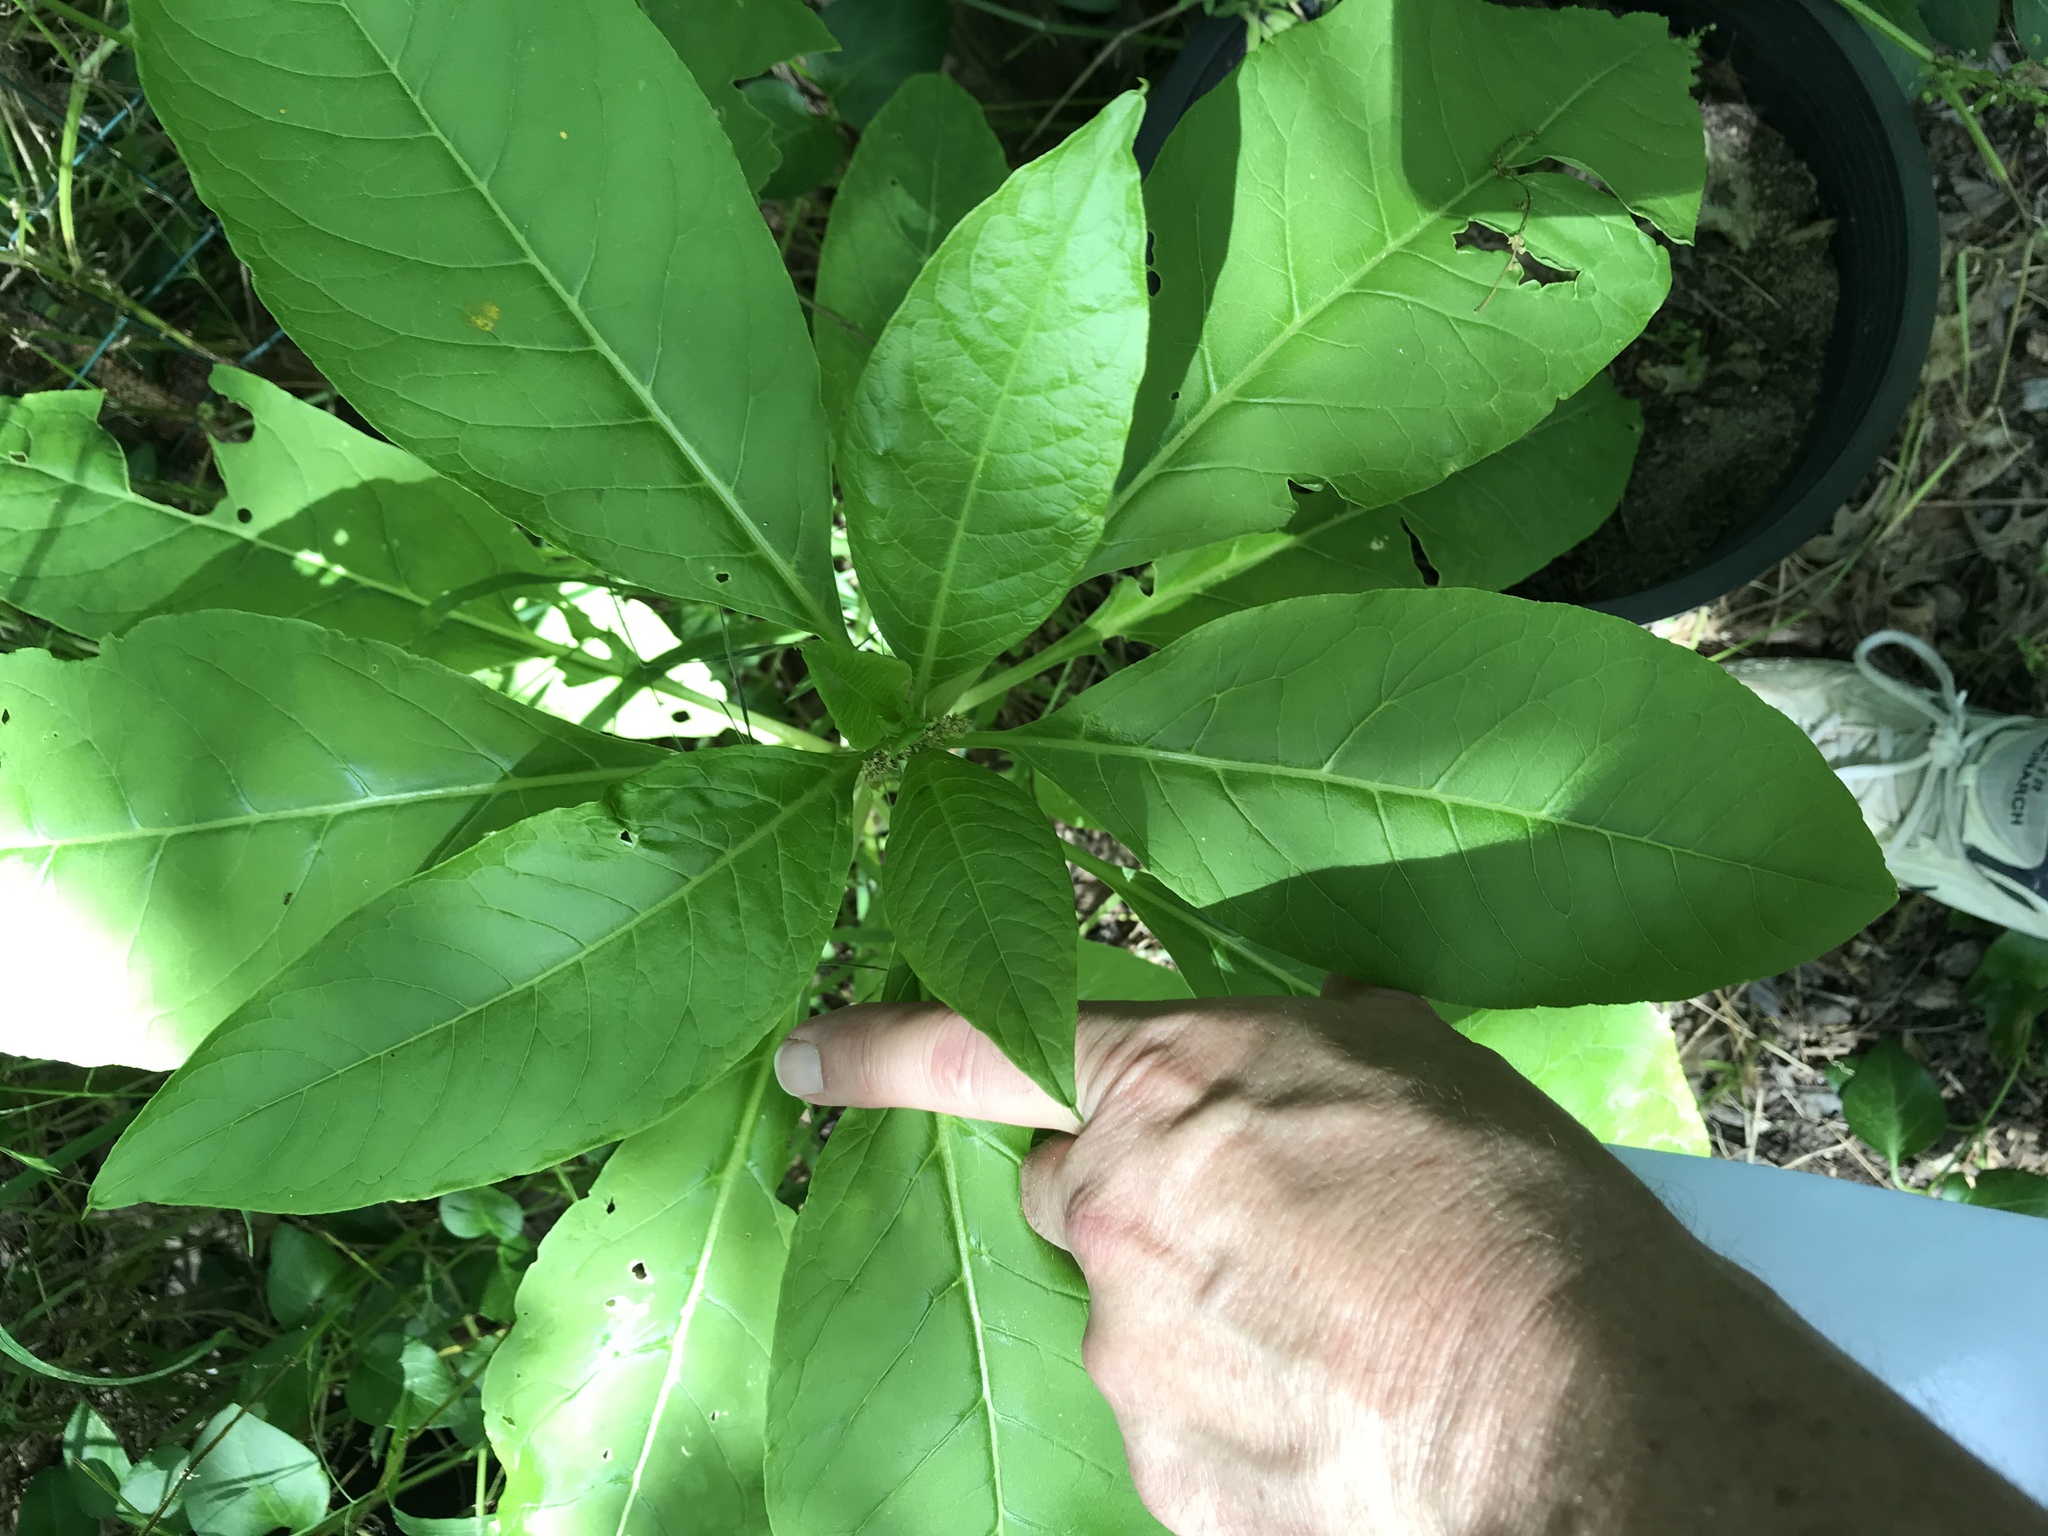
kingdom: Plantae
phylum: Tracheophyta
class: Magnoliopsida
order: Caryophyllales
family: Phytolaccaceae
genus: Phytolacca
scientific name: Phytolacca americana
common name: American pokeweed
